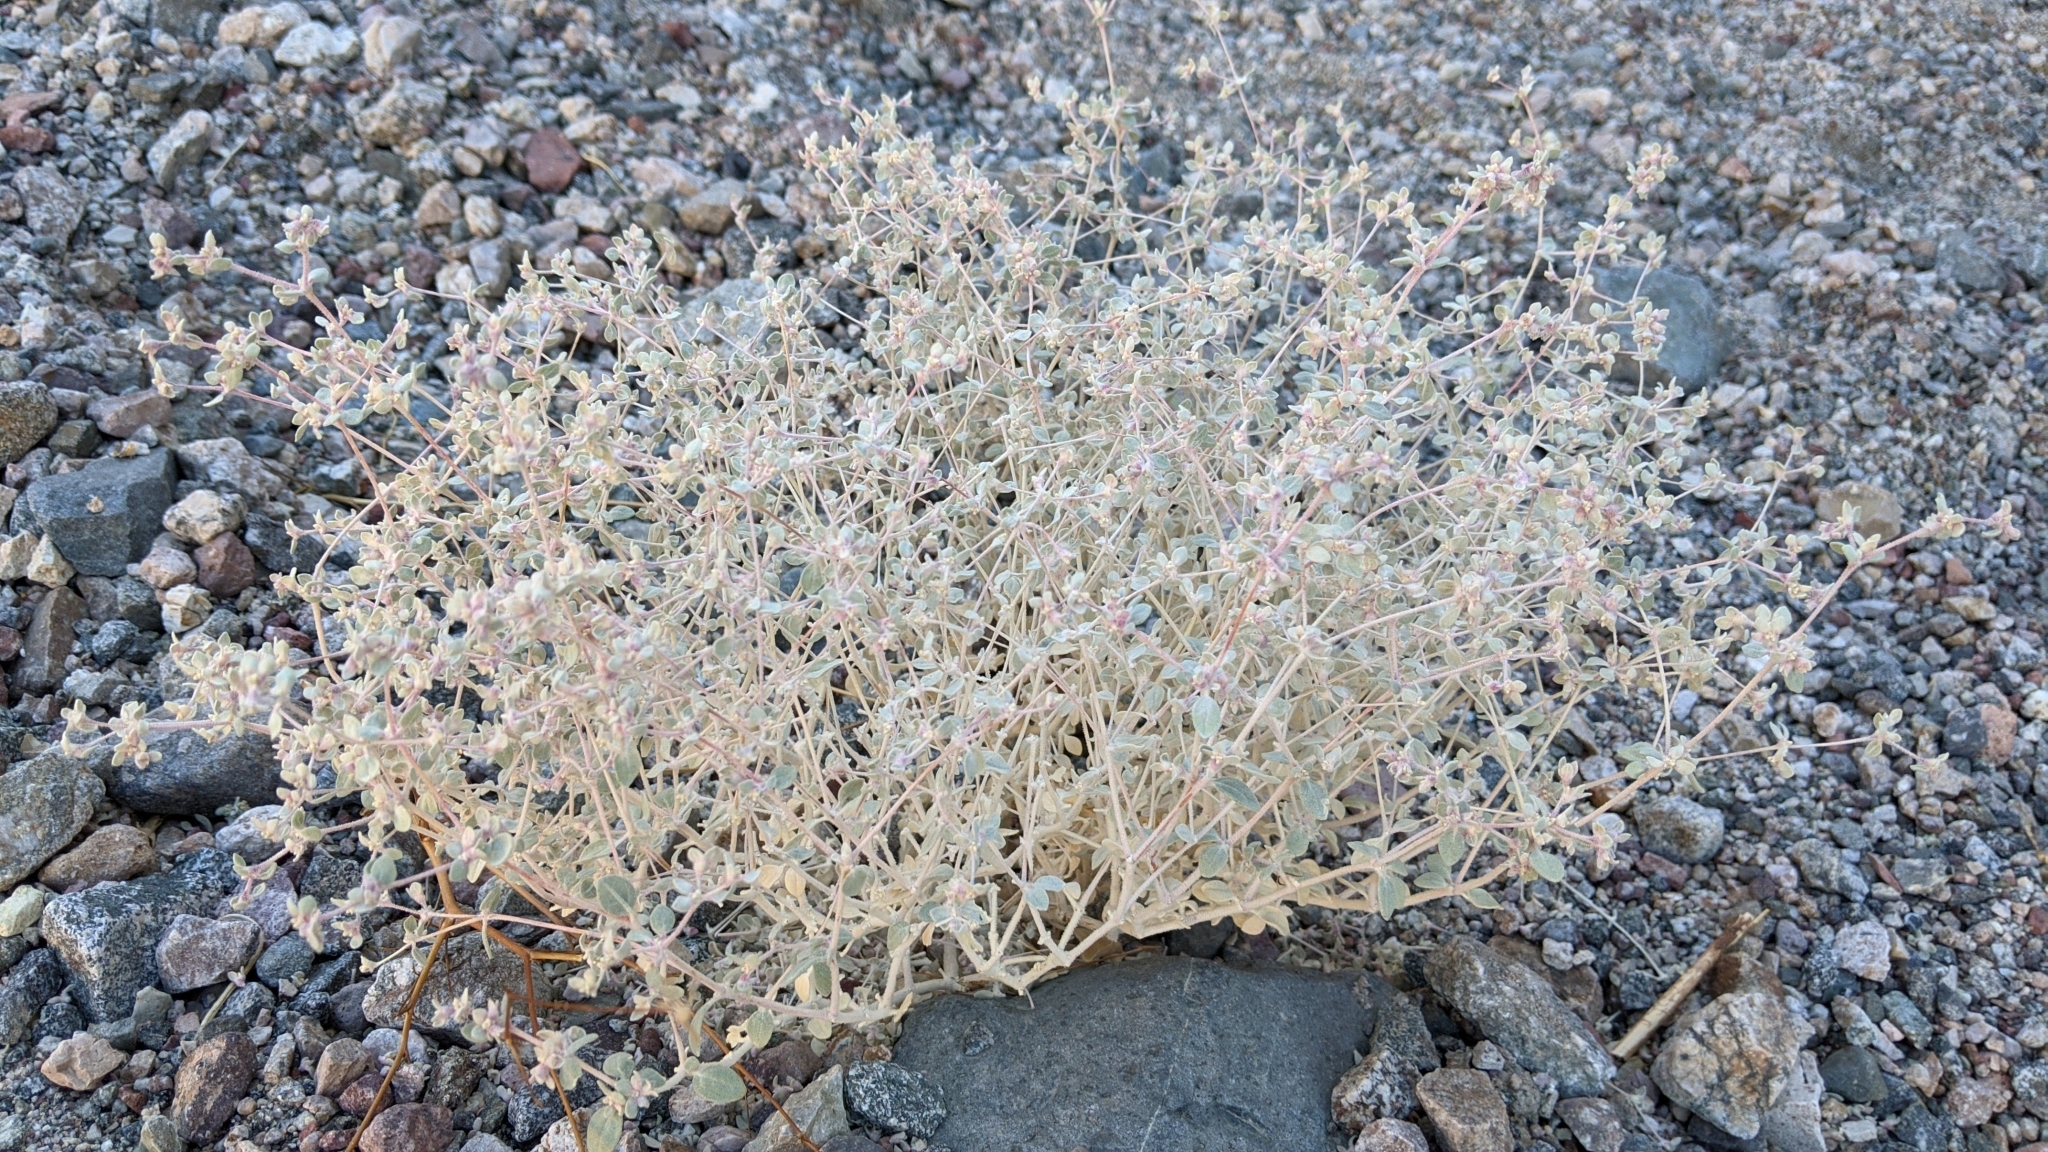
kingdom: Plantae
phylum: Tracheophyta
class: Magnoliopsida
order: Caryophyllales
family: Amaranthaceae
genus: Tidestromia
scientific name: Tidestromia suffruticosa
